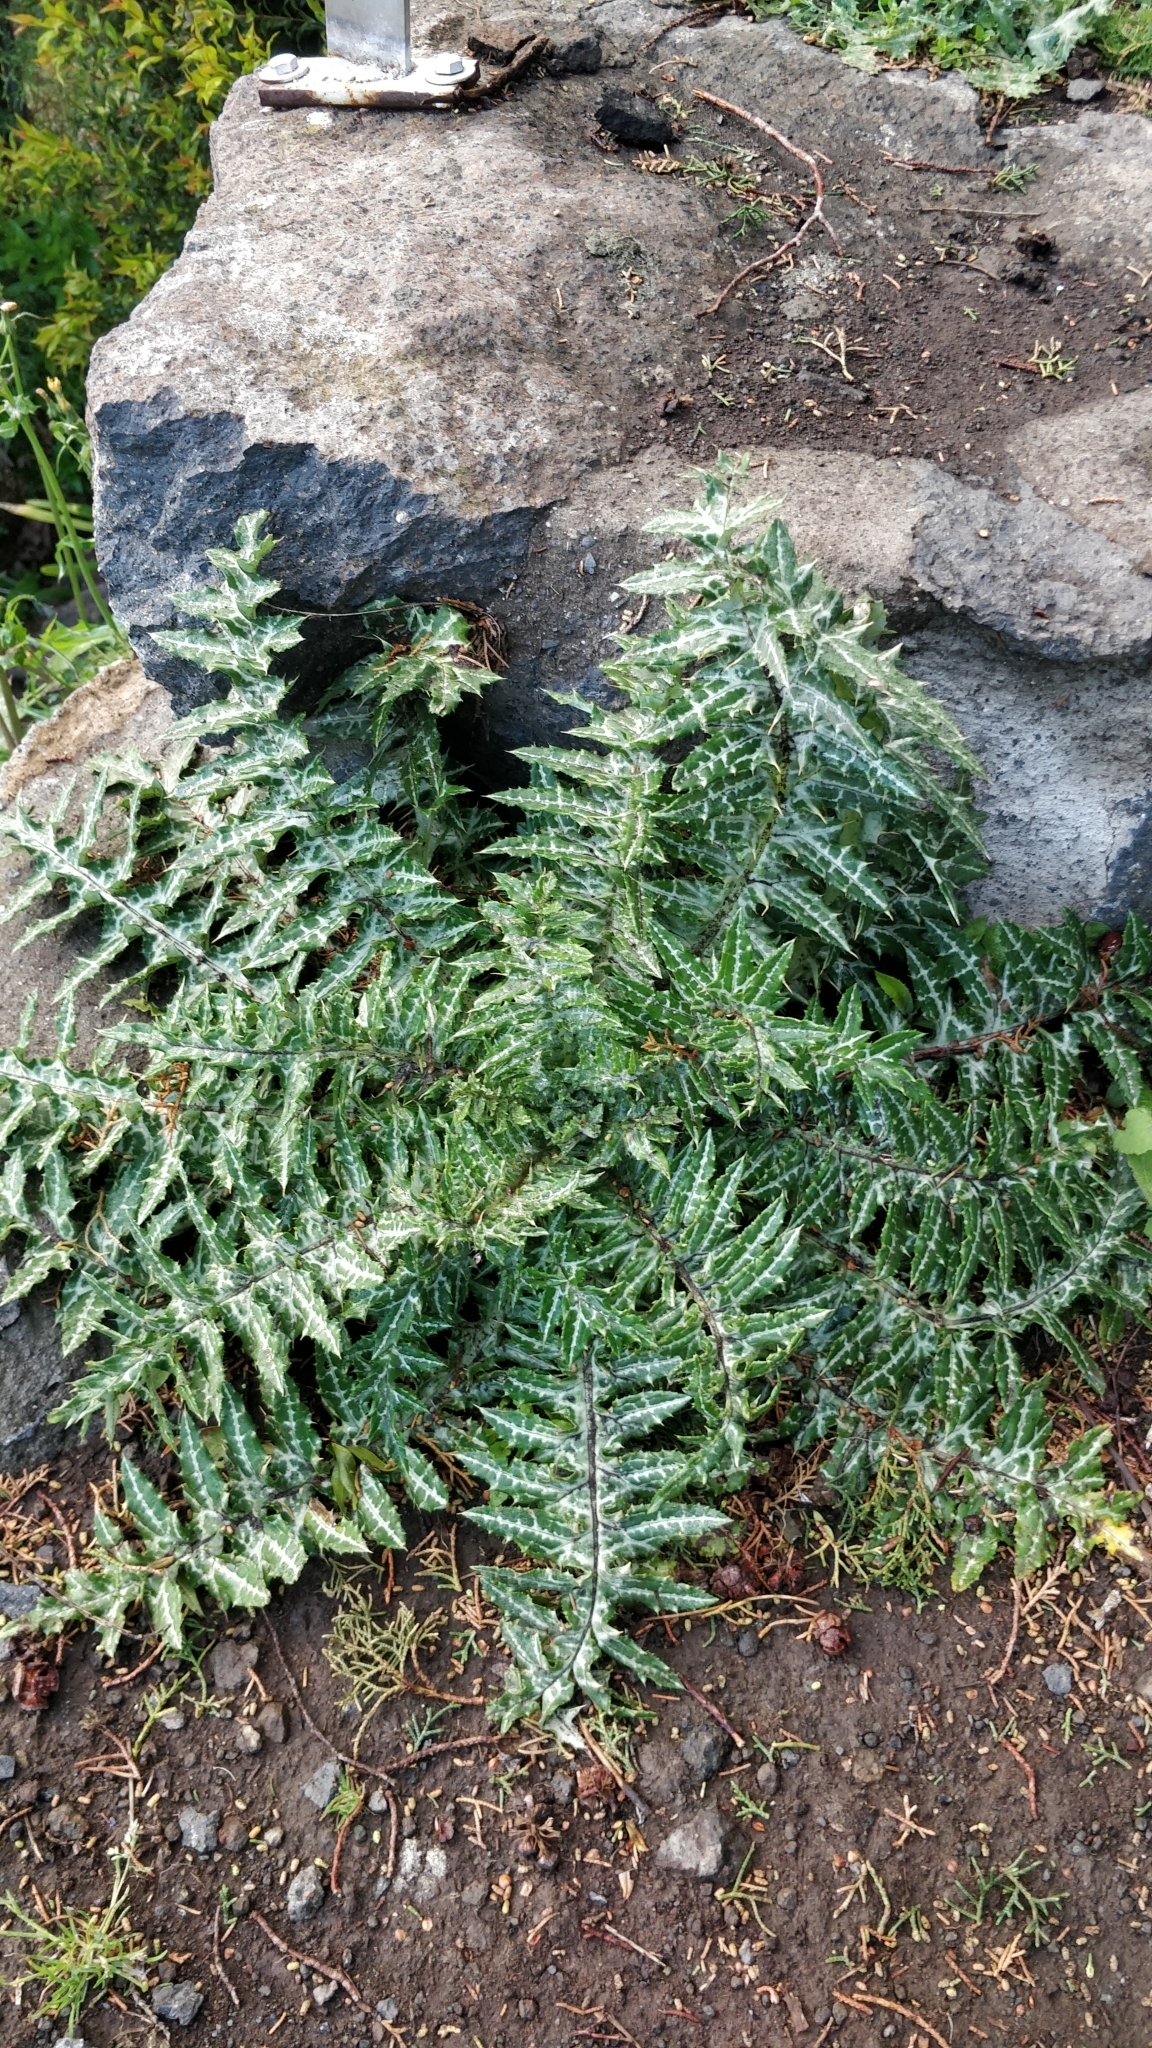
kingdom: Plantae
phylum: Tracheophyta
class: Magnoliopsida
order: Asterales
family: Asteraceae
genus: Galactites
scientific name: Galactites tomentosa
